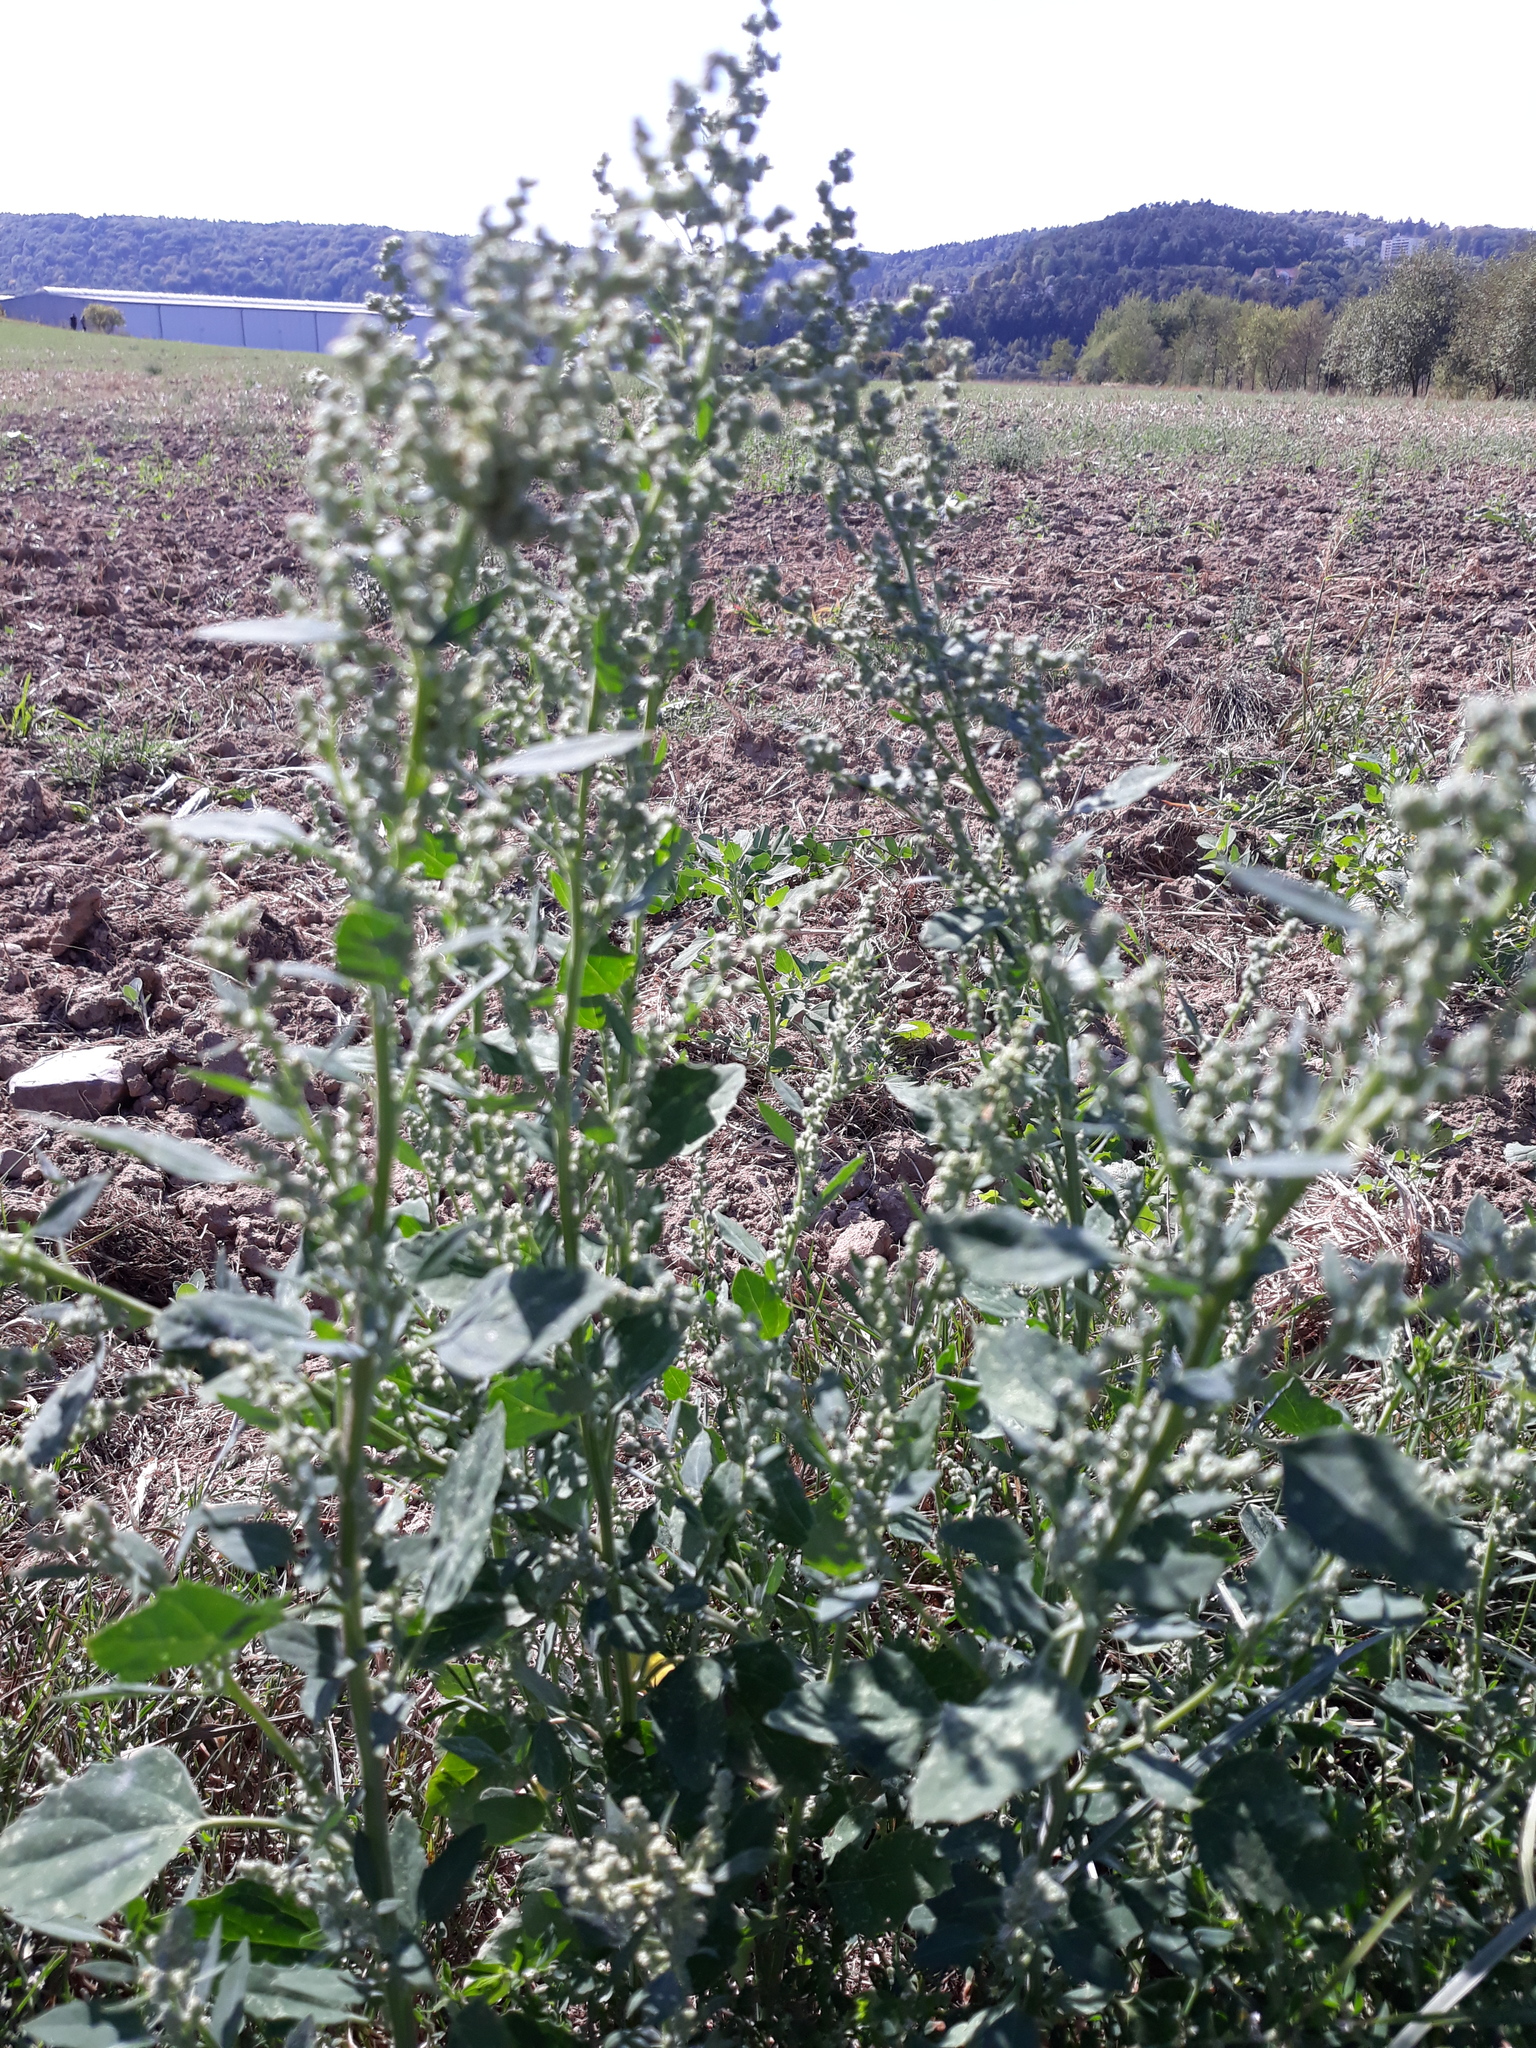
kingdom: Plantae
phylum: Tracheophyta
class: Magnoliopsida
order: Caryophyllales
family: Amaranthaceae
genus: Chenopodium
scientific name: Chenopodium album
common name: Fat-hen
